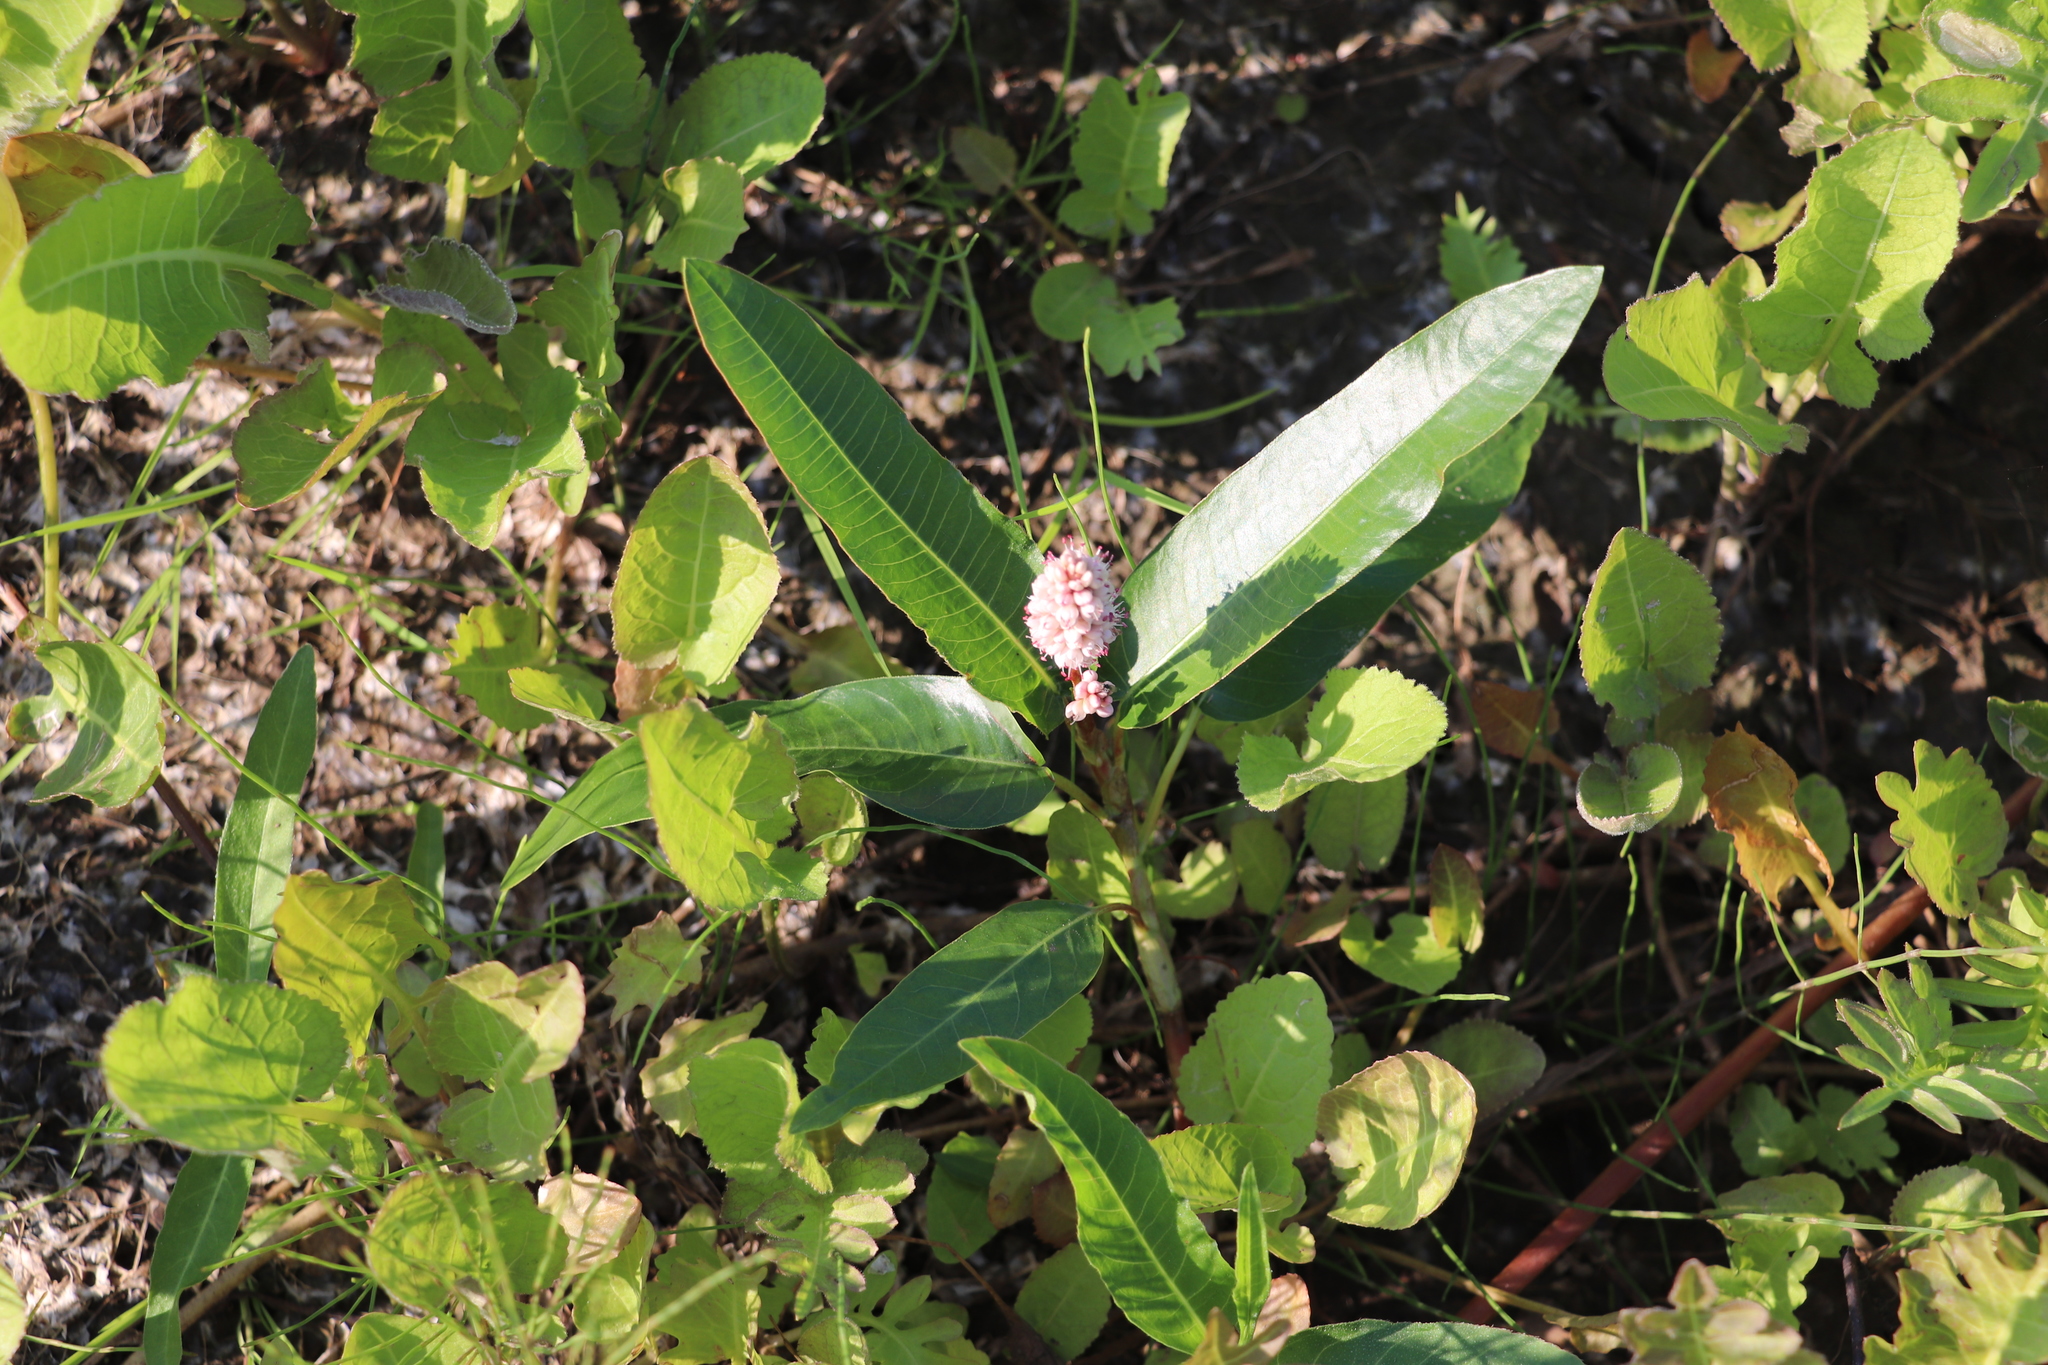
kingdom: Plantae
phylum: Tracheophyta
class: Magnoliopsida
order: Caryophyllales
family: Polygonaceae
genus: Persicaria
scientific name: Persicaria amphibia
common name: Amphibious bistort
